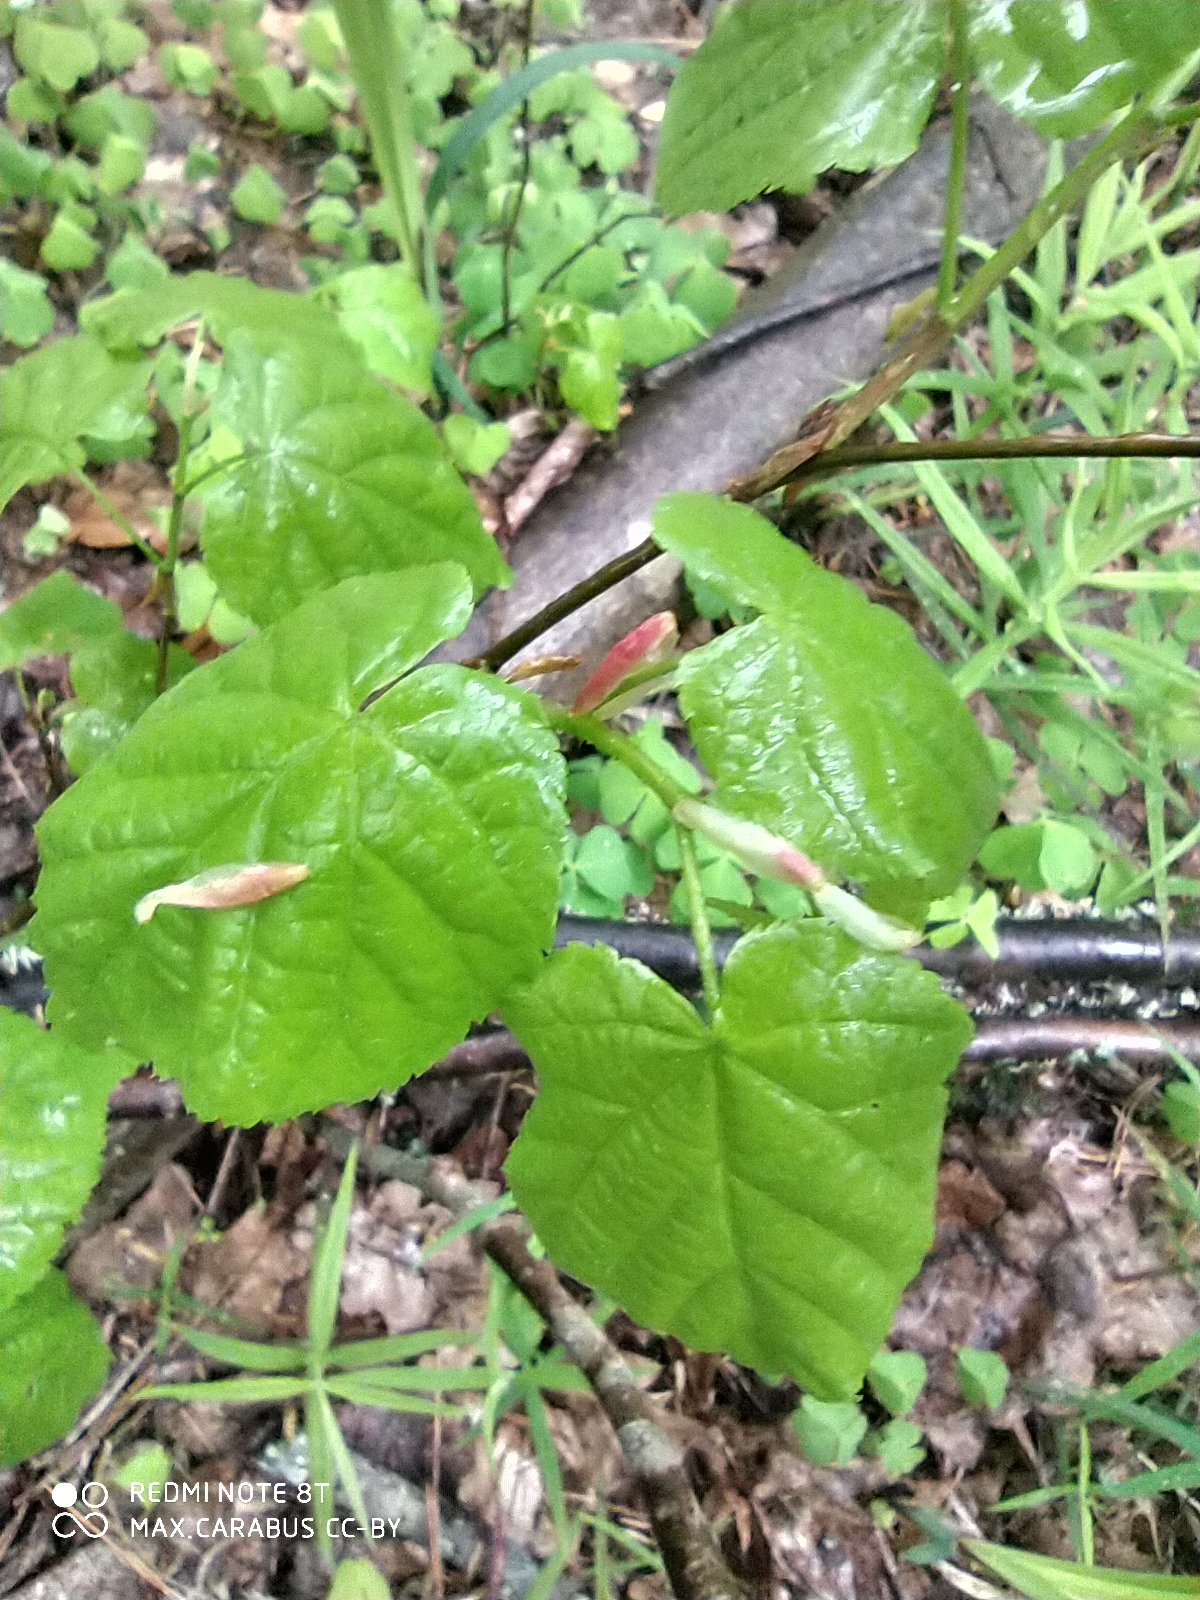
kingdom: Plantae
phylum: Tracheophyta
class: Magnoliopsida
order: Malvales
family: Malvaceae
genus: Tilia
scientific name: Tilia cordata
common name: Small-leaved lime
